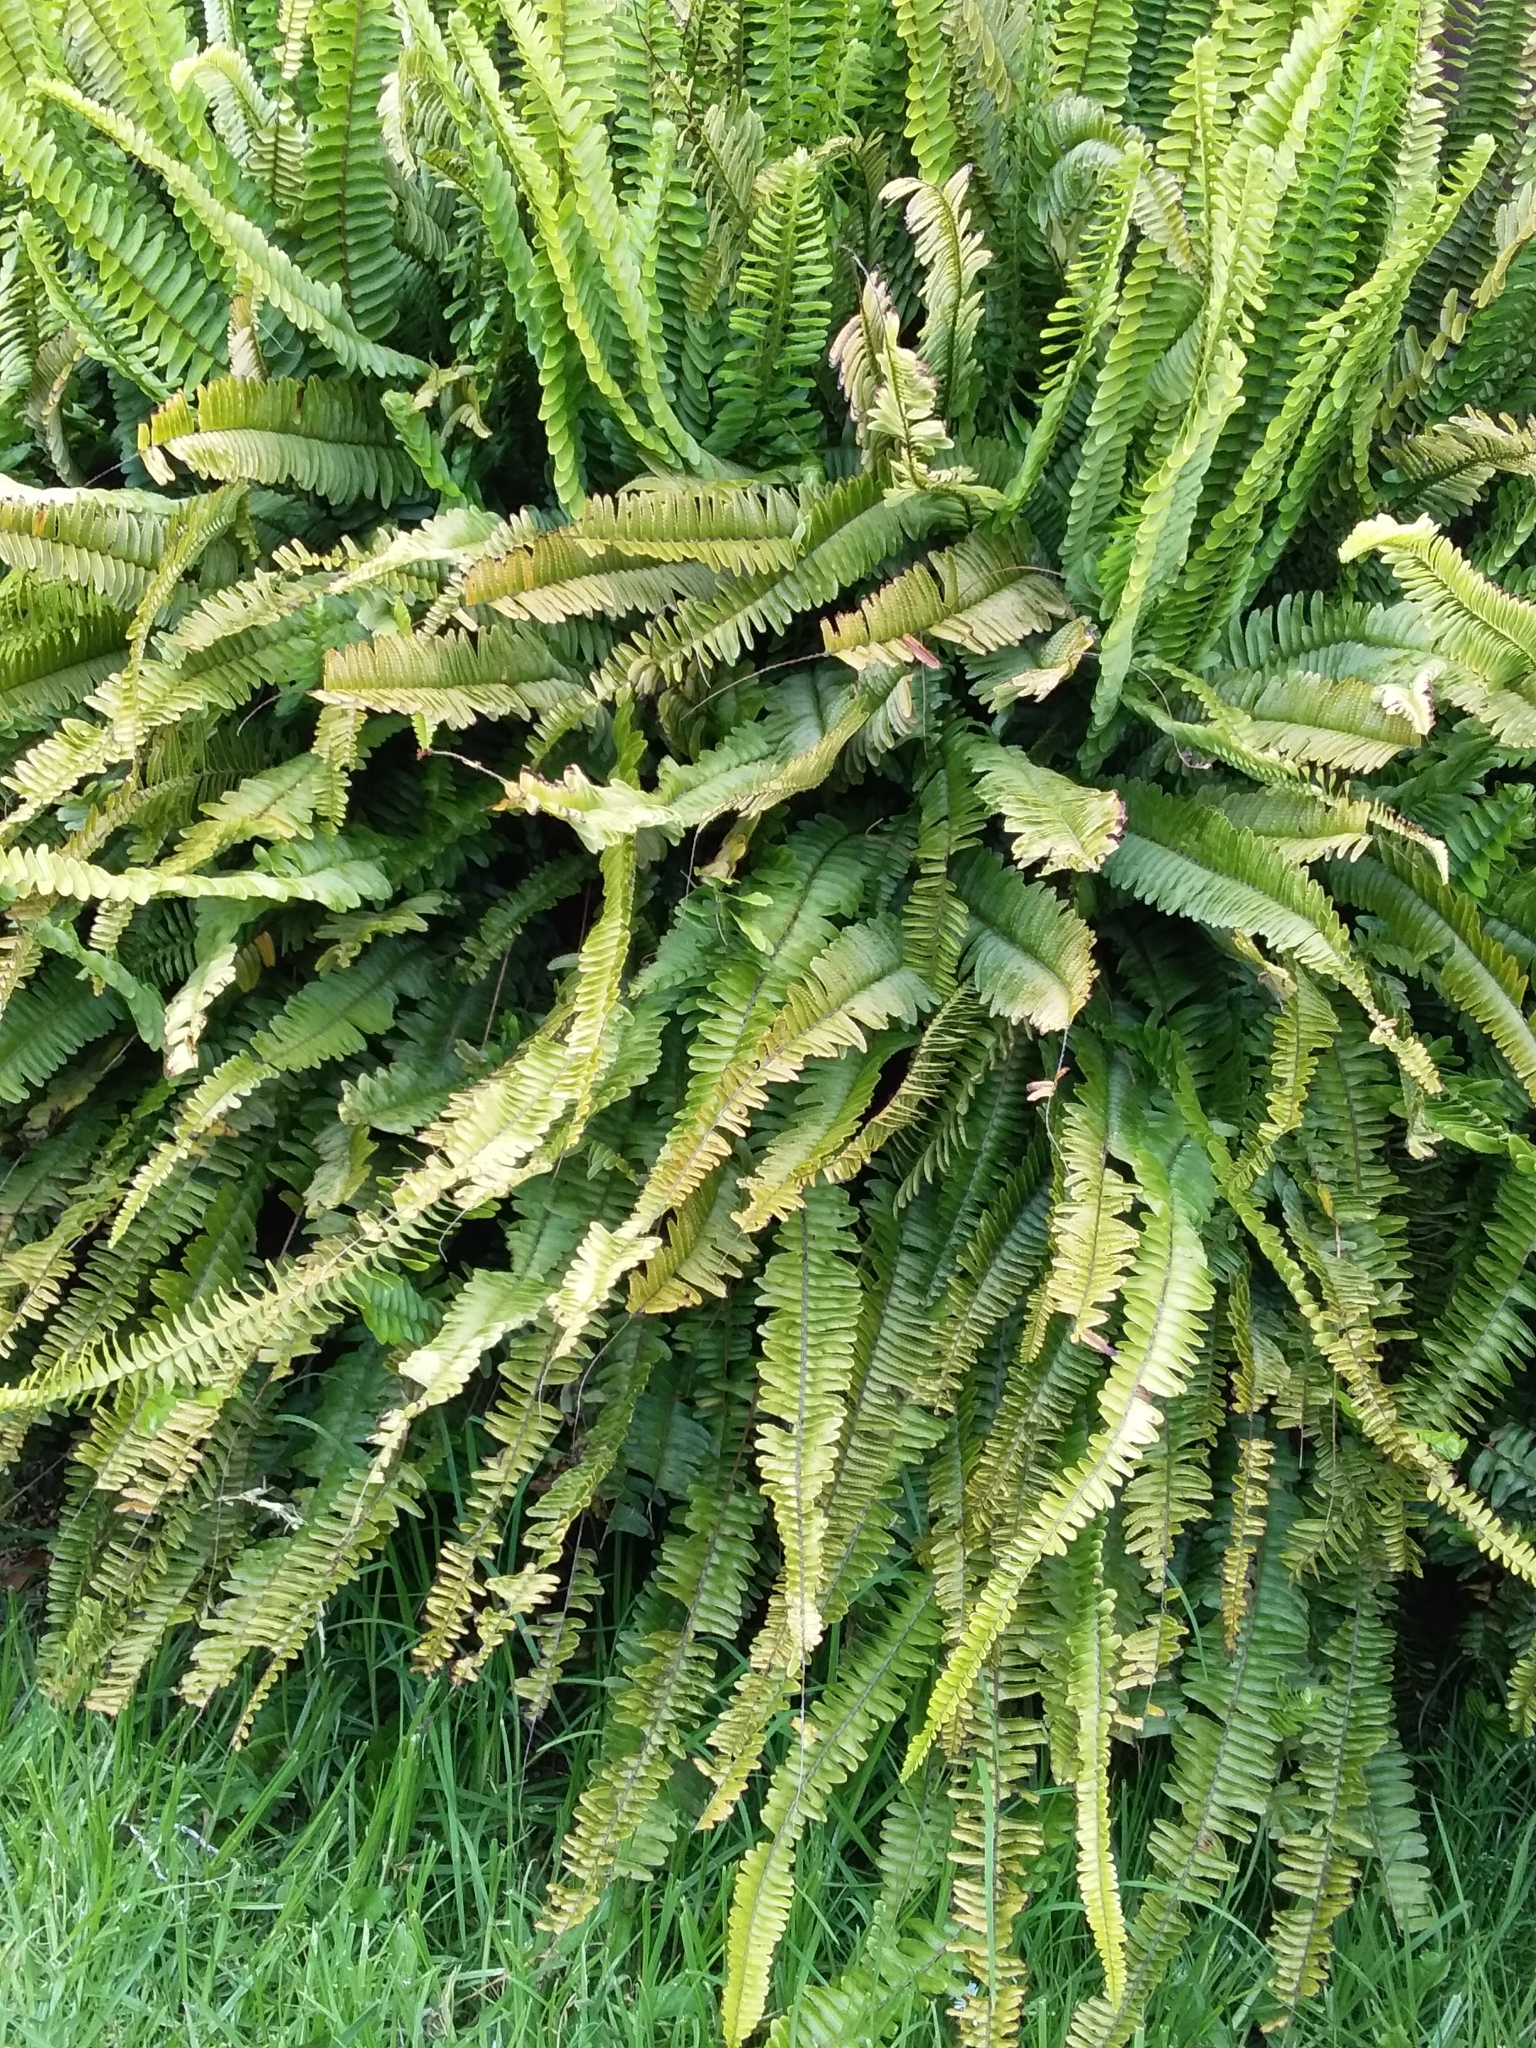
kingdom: Plantae
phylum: Tracheophyta
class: Polypodiopsida
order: Polypodiales
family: Nephrolepidaceae
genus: Nephrolepis
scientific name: Nephrolepis cordifolia
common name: Narrow swordfern
